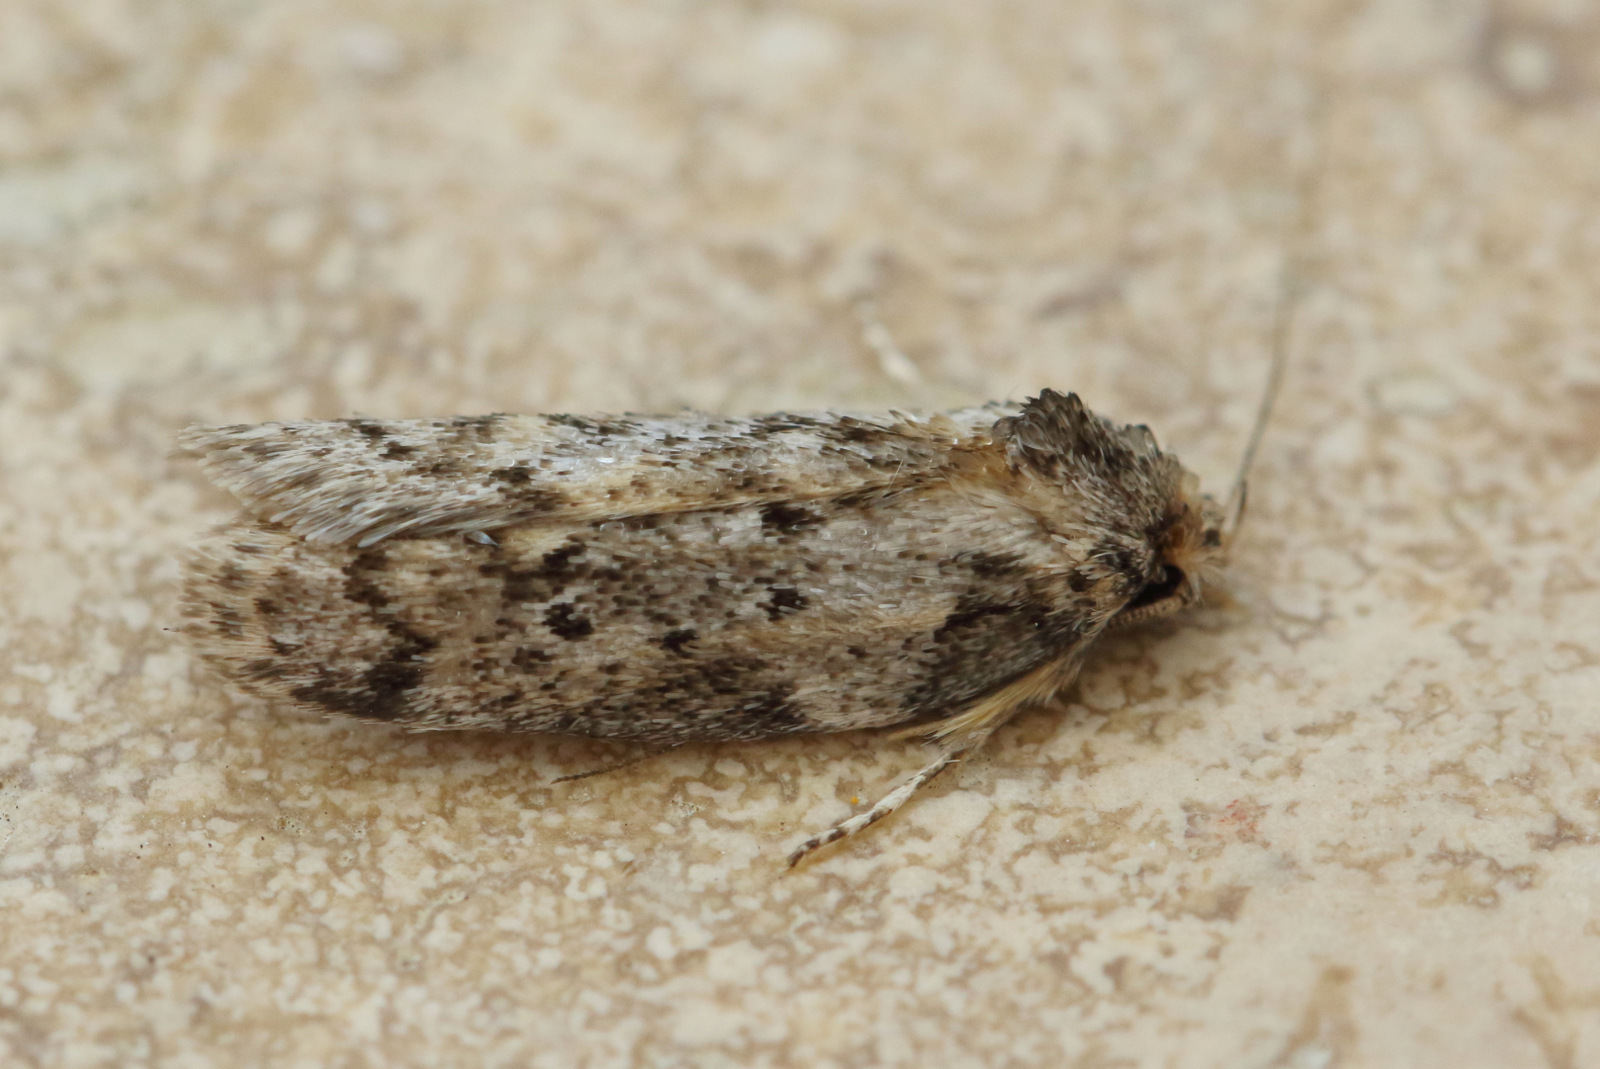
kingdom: Animalia
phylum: Arthropoda
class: Insecta
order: Lepidoptera
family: Oecophoridae
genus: Philobota
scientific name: Philobota baryptera
